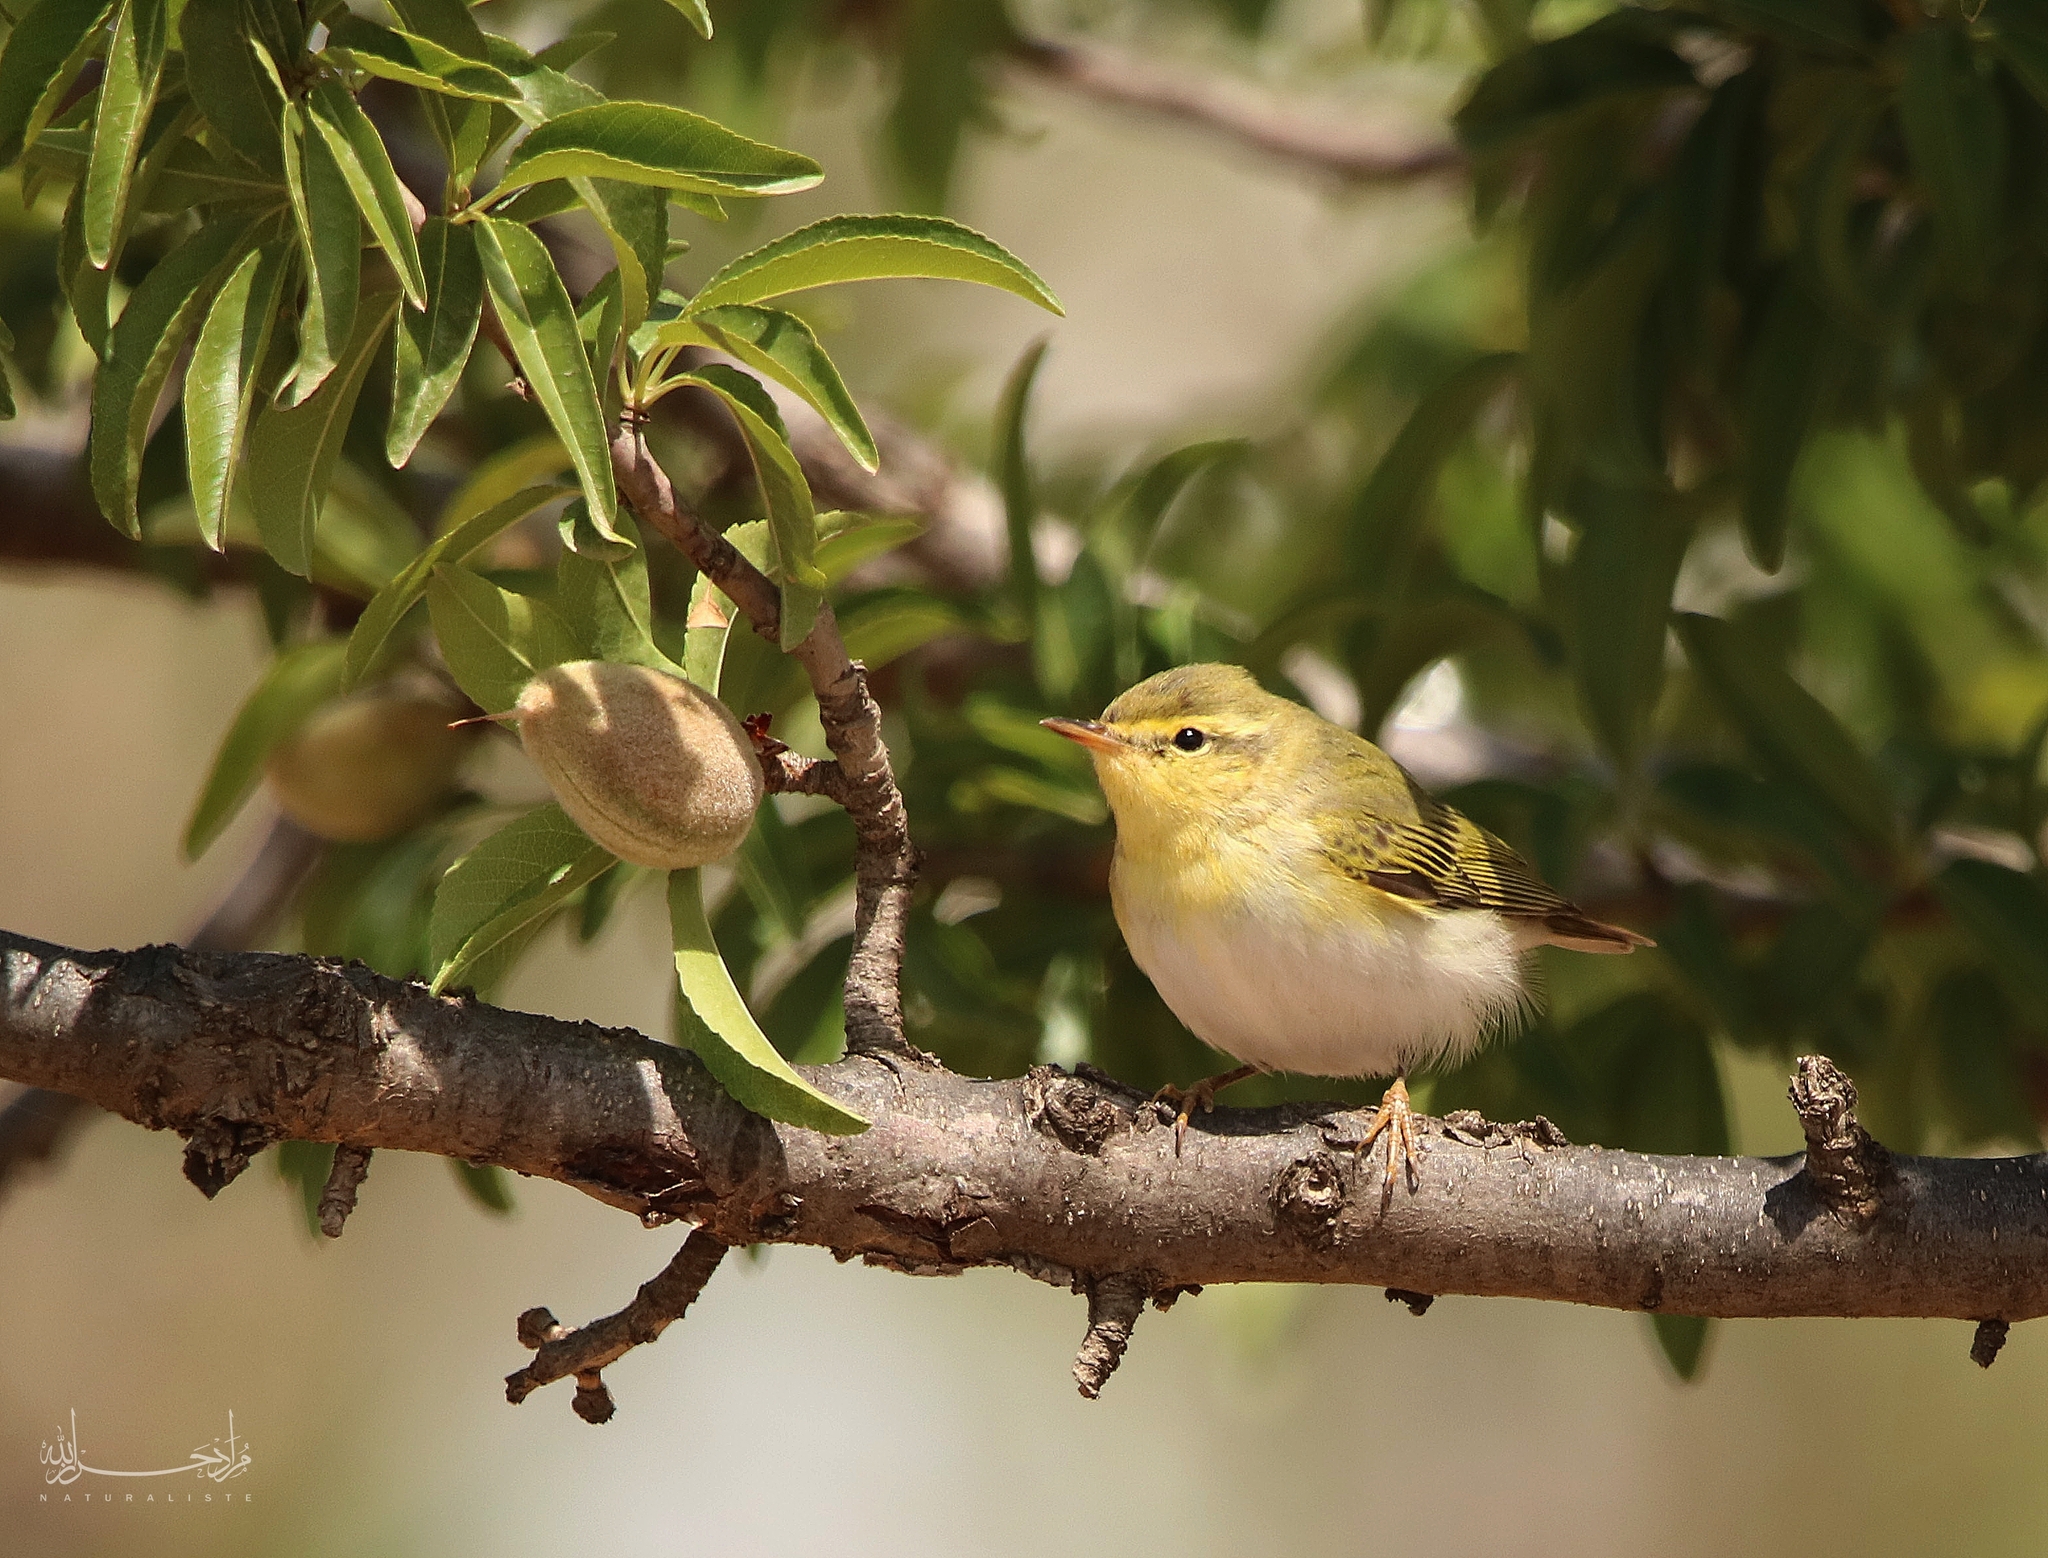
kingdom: Animalia
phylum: Chordata
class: Aves
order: Passeriformes
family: Phylloscopidae
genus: Phylloscopus
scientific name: Phylloscopus sibillatrix
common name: Wood warbler
